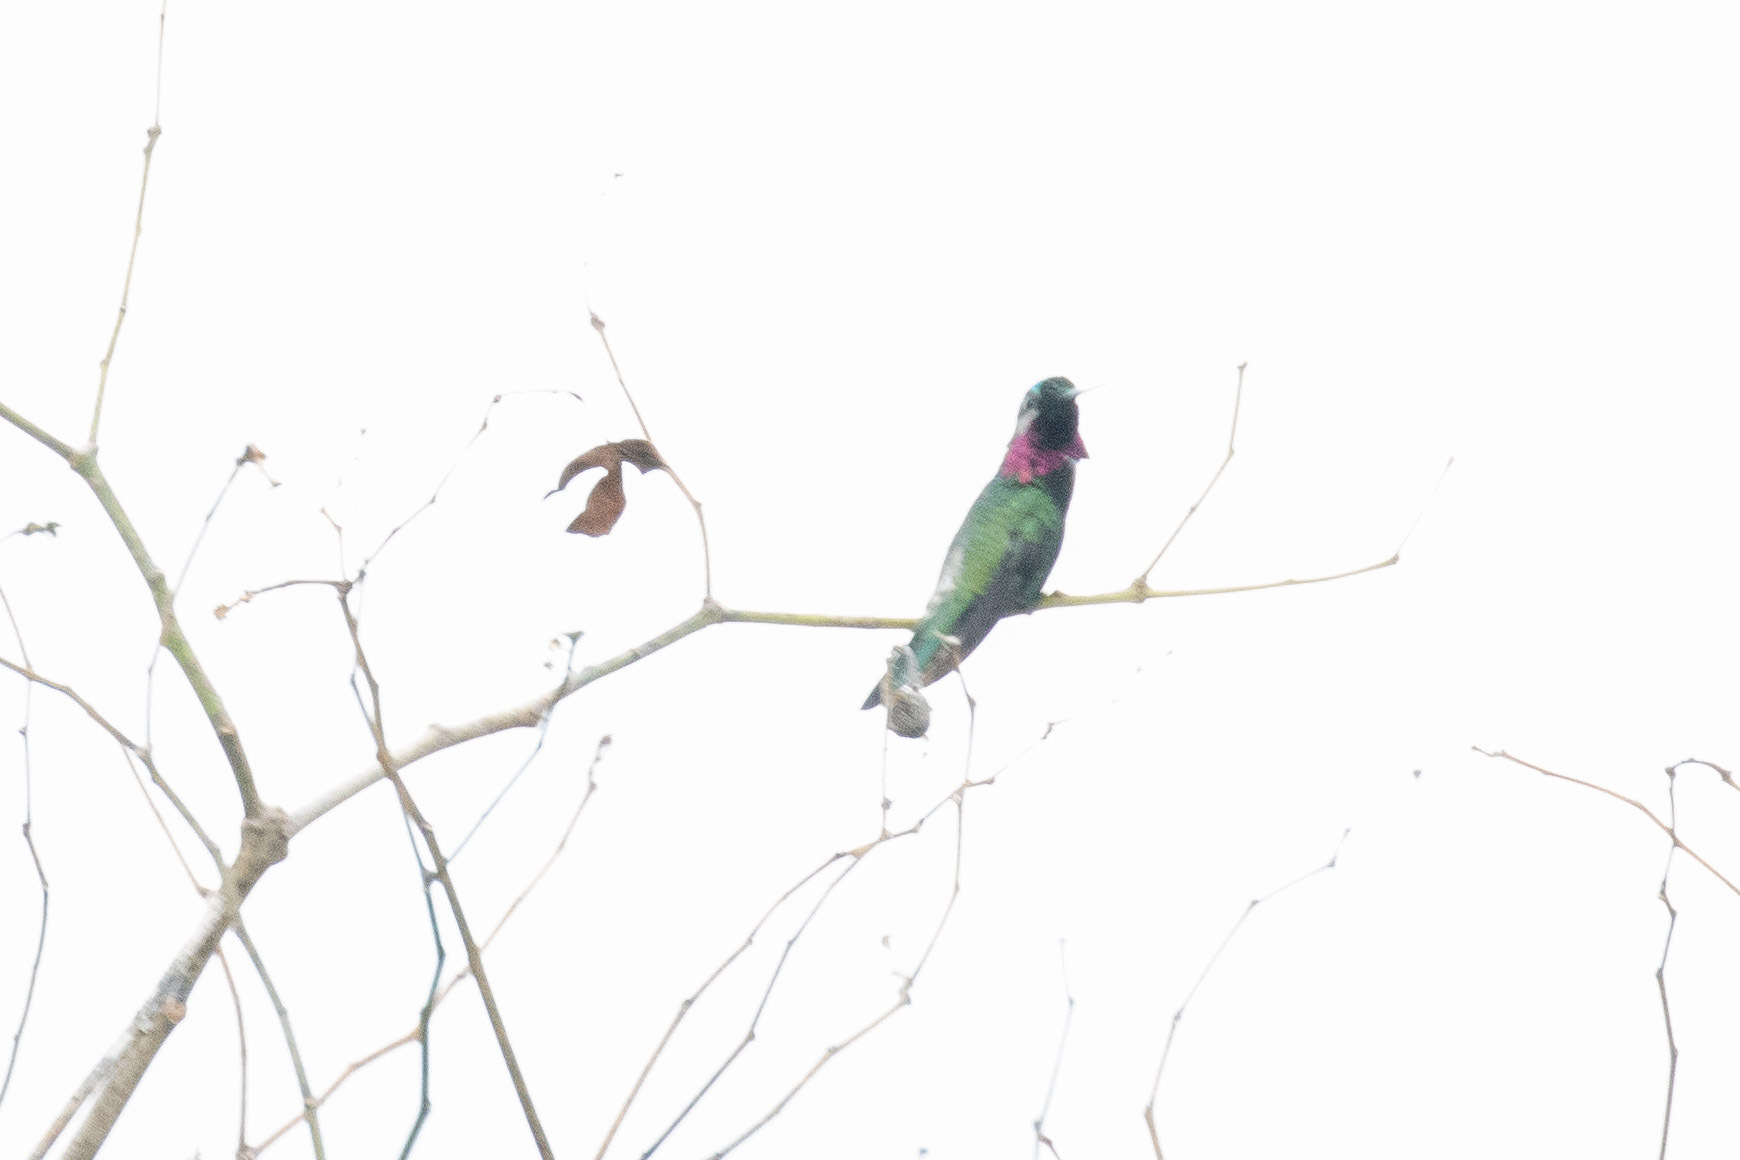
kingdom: Animalia
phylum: Chordata
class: Aves
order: Apodiformes
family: Trochilidae
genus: Heliomaster
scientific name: Heliomaster squamosus
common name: Stripe-breasted starthroat
